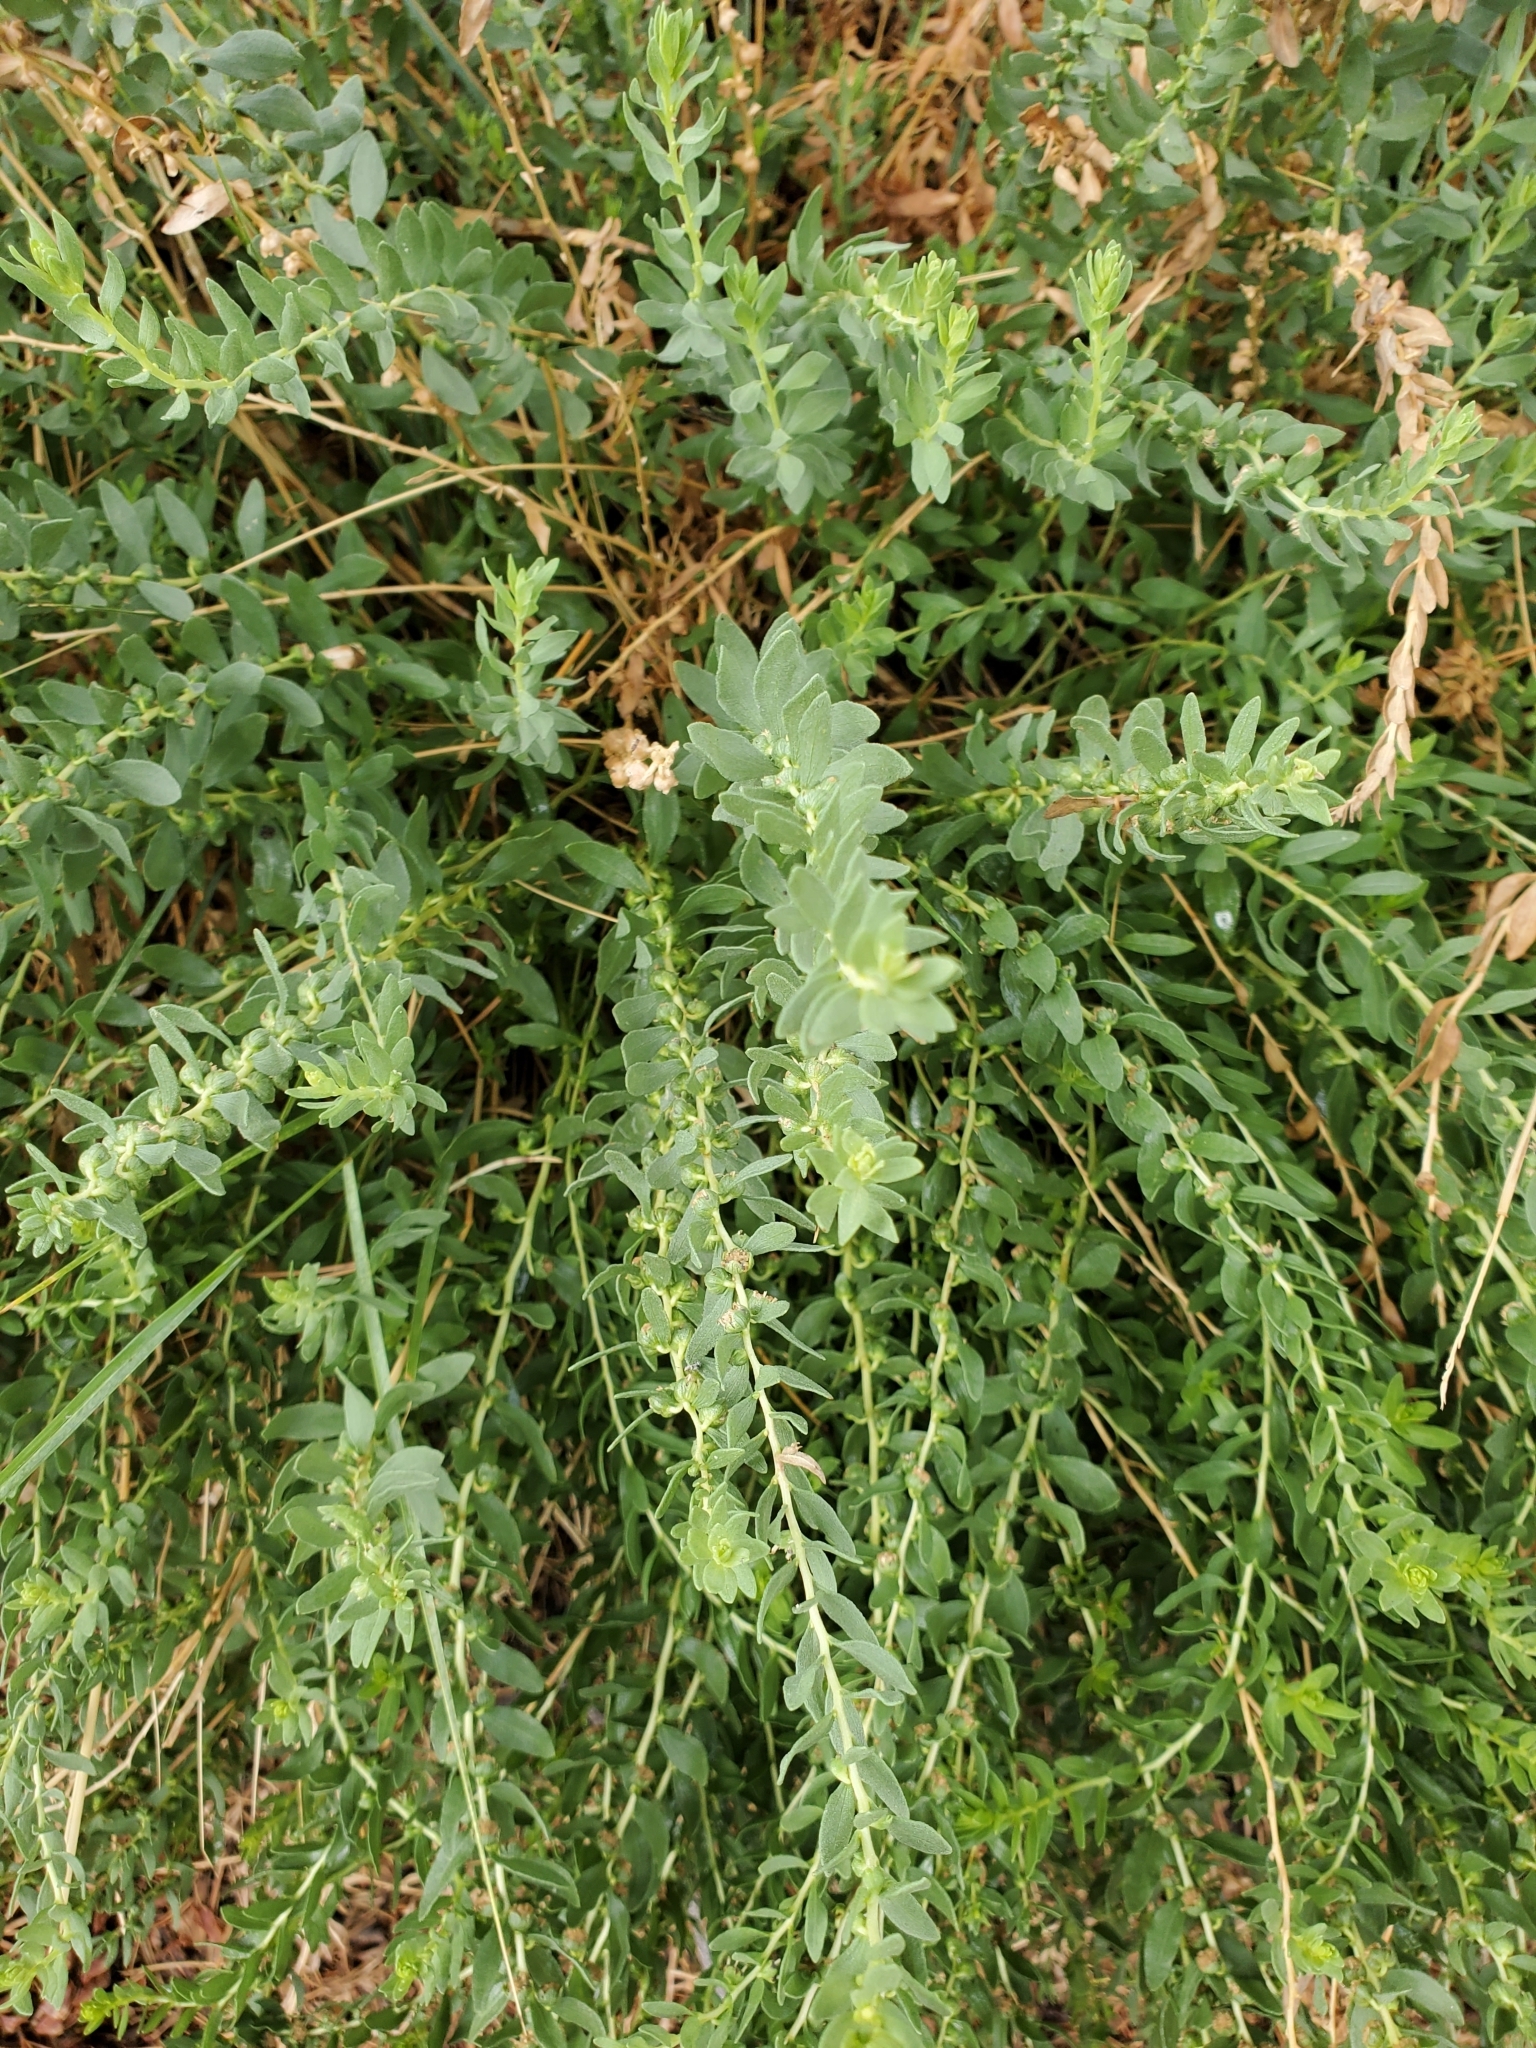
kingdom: Plantae
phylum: Tracheophyta
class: Magnoliopsida
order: Asterales
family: Asteraceae
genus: Iva
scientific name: Iva axillaris
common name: Poverty sumpweed
